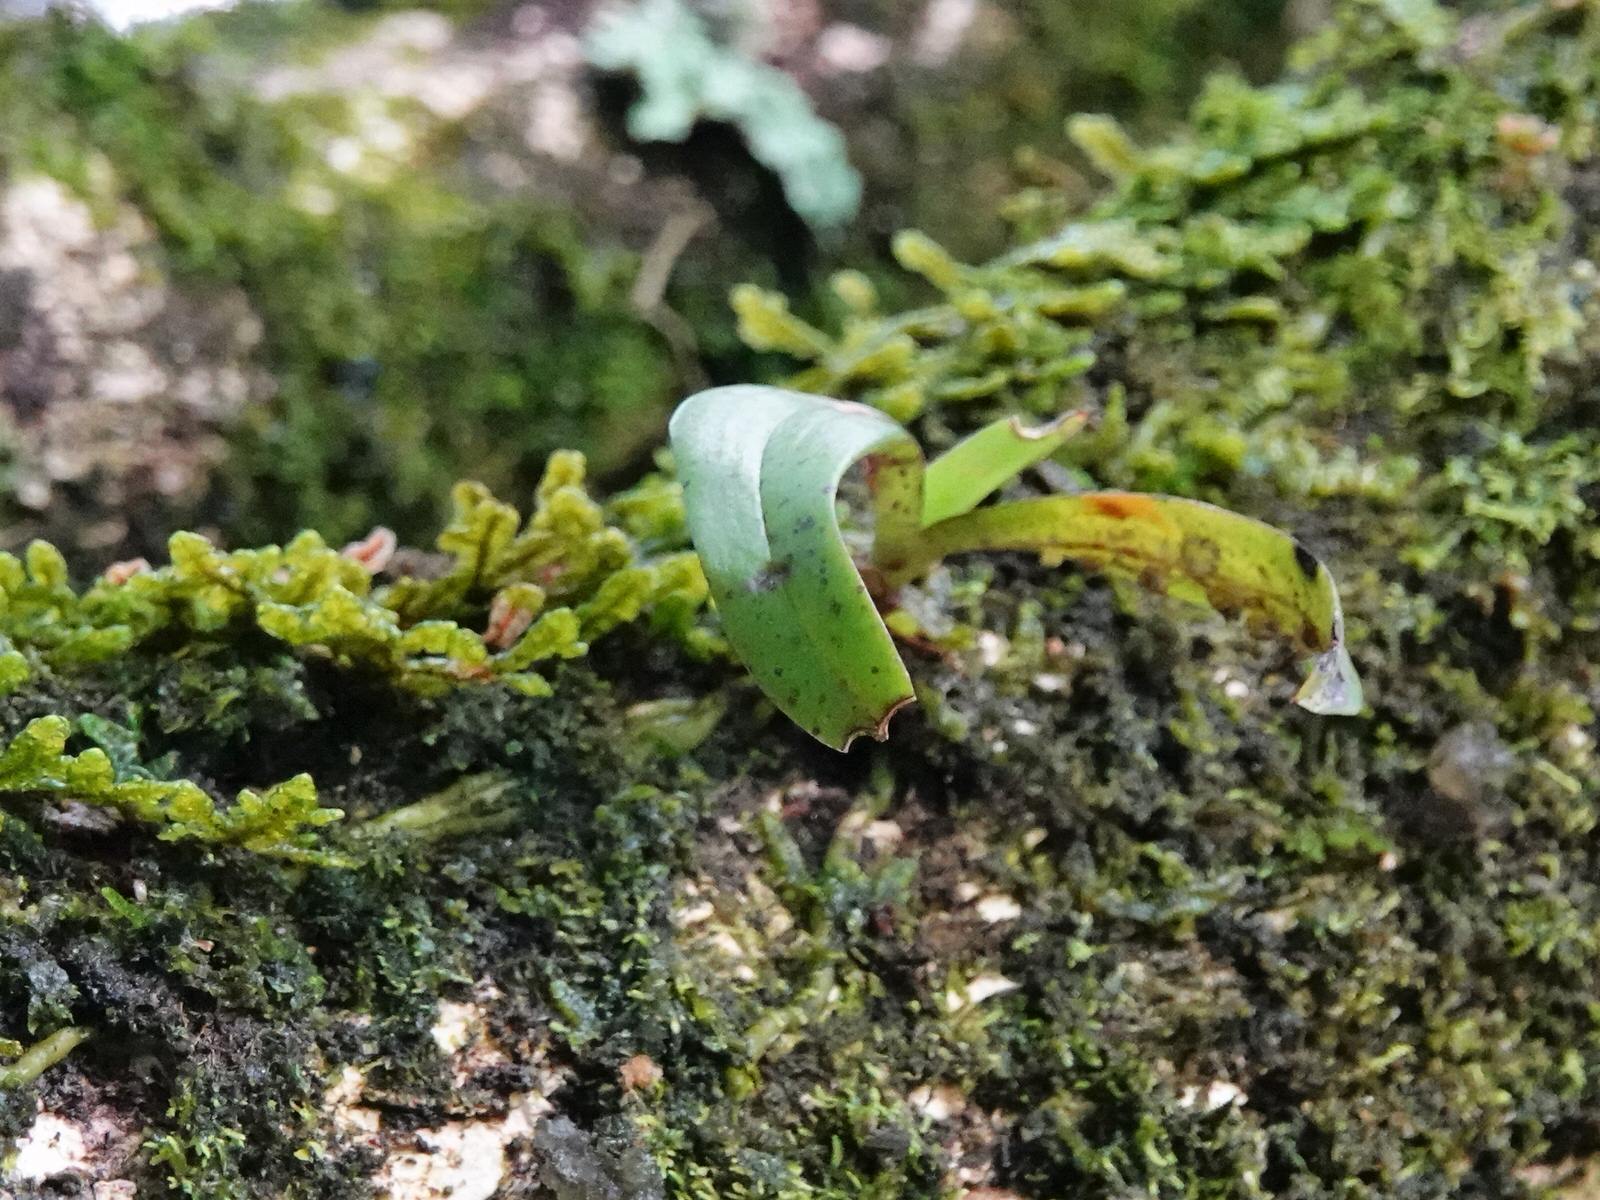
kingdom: Plantae
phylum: Tracheophyta
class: Liliopsida
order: Asparagales
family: Orchidaceae
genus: Drymoanthus
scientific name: Drymoanthus adversus
